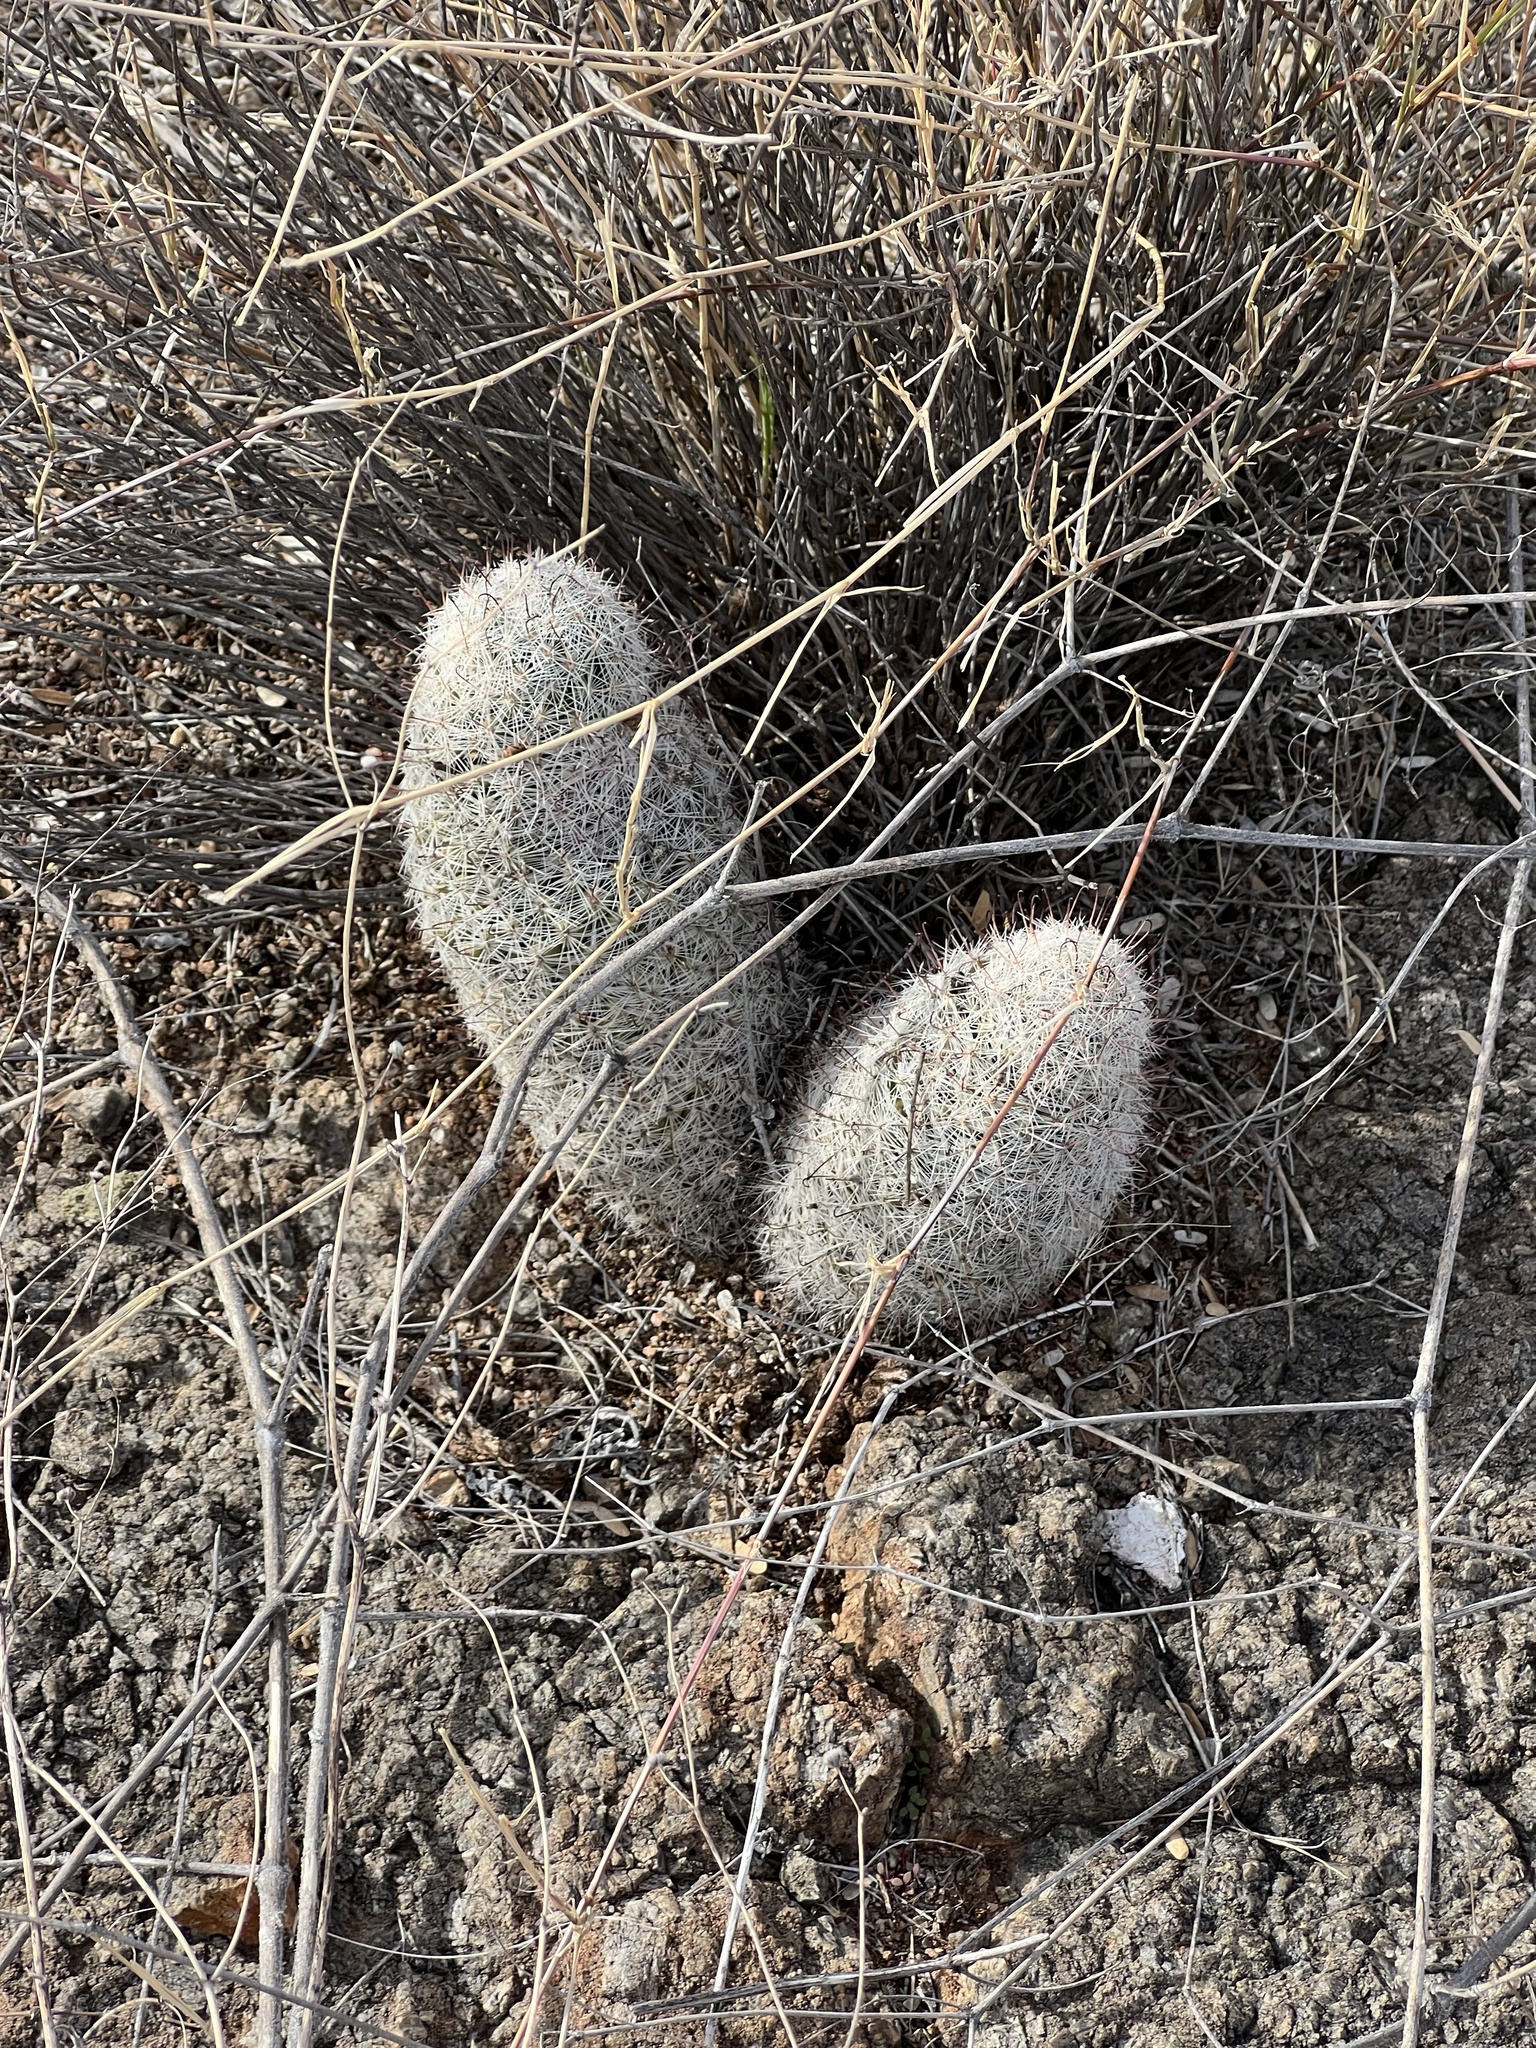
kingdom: Plantae
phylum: Tracheophyta
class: Magnoliopsida
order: Caryophyllales
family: Cactaceae
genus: Cochemiea
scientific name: Cochemiea grahamii
